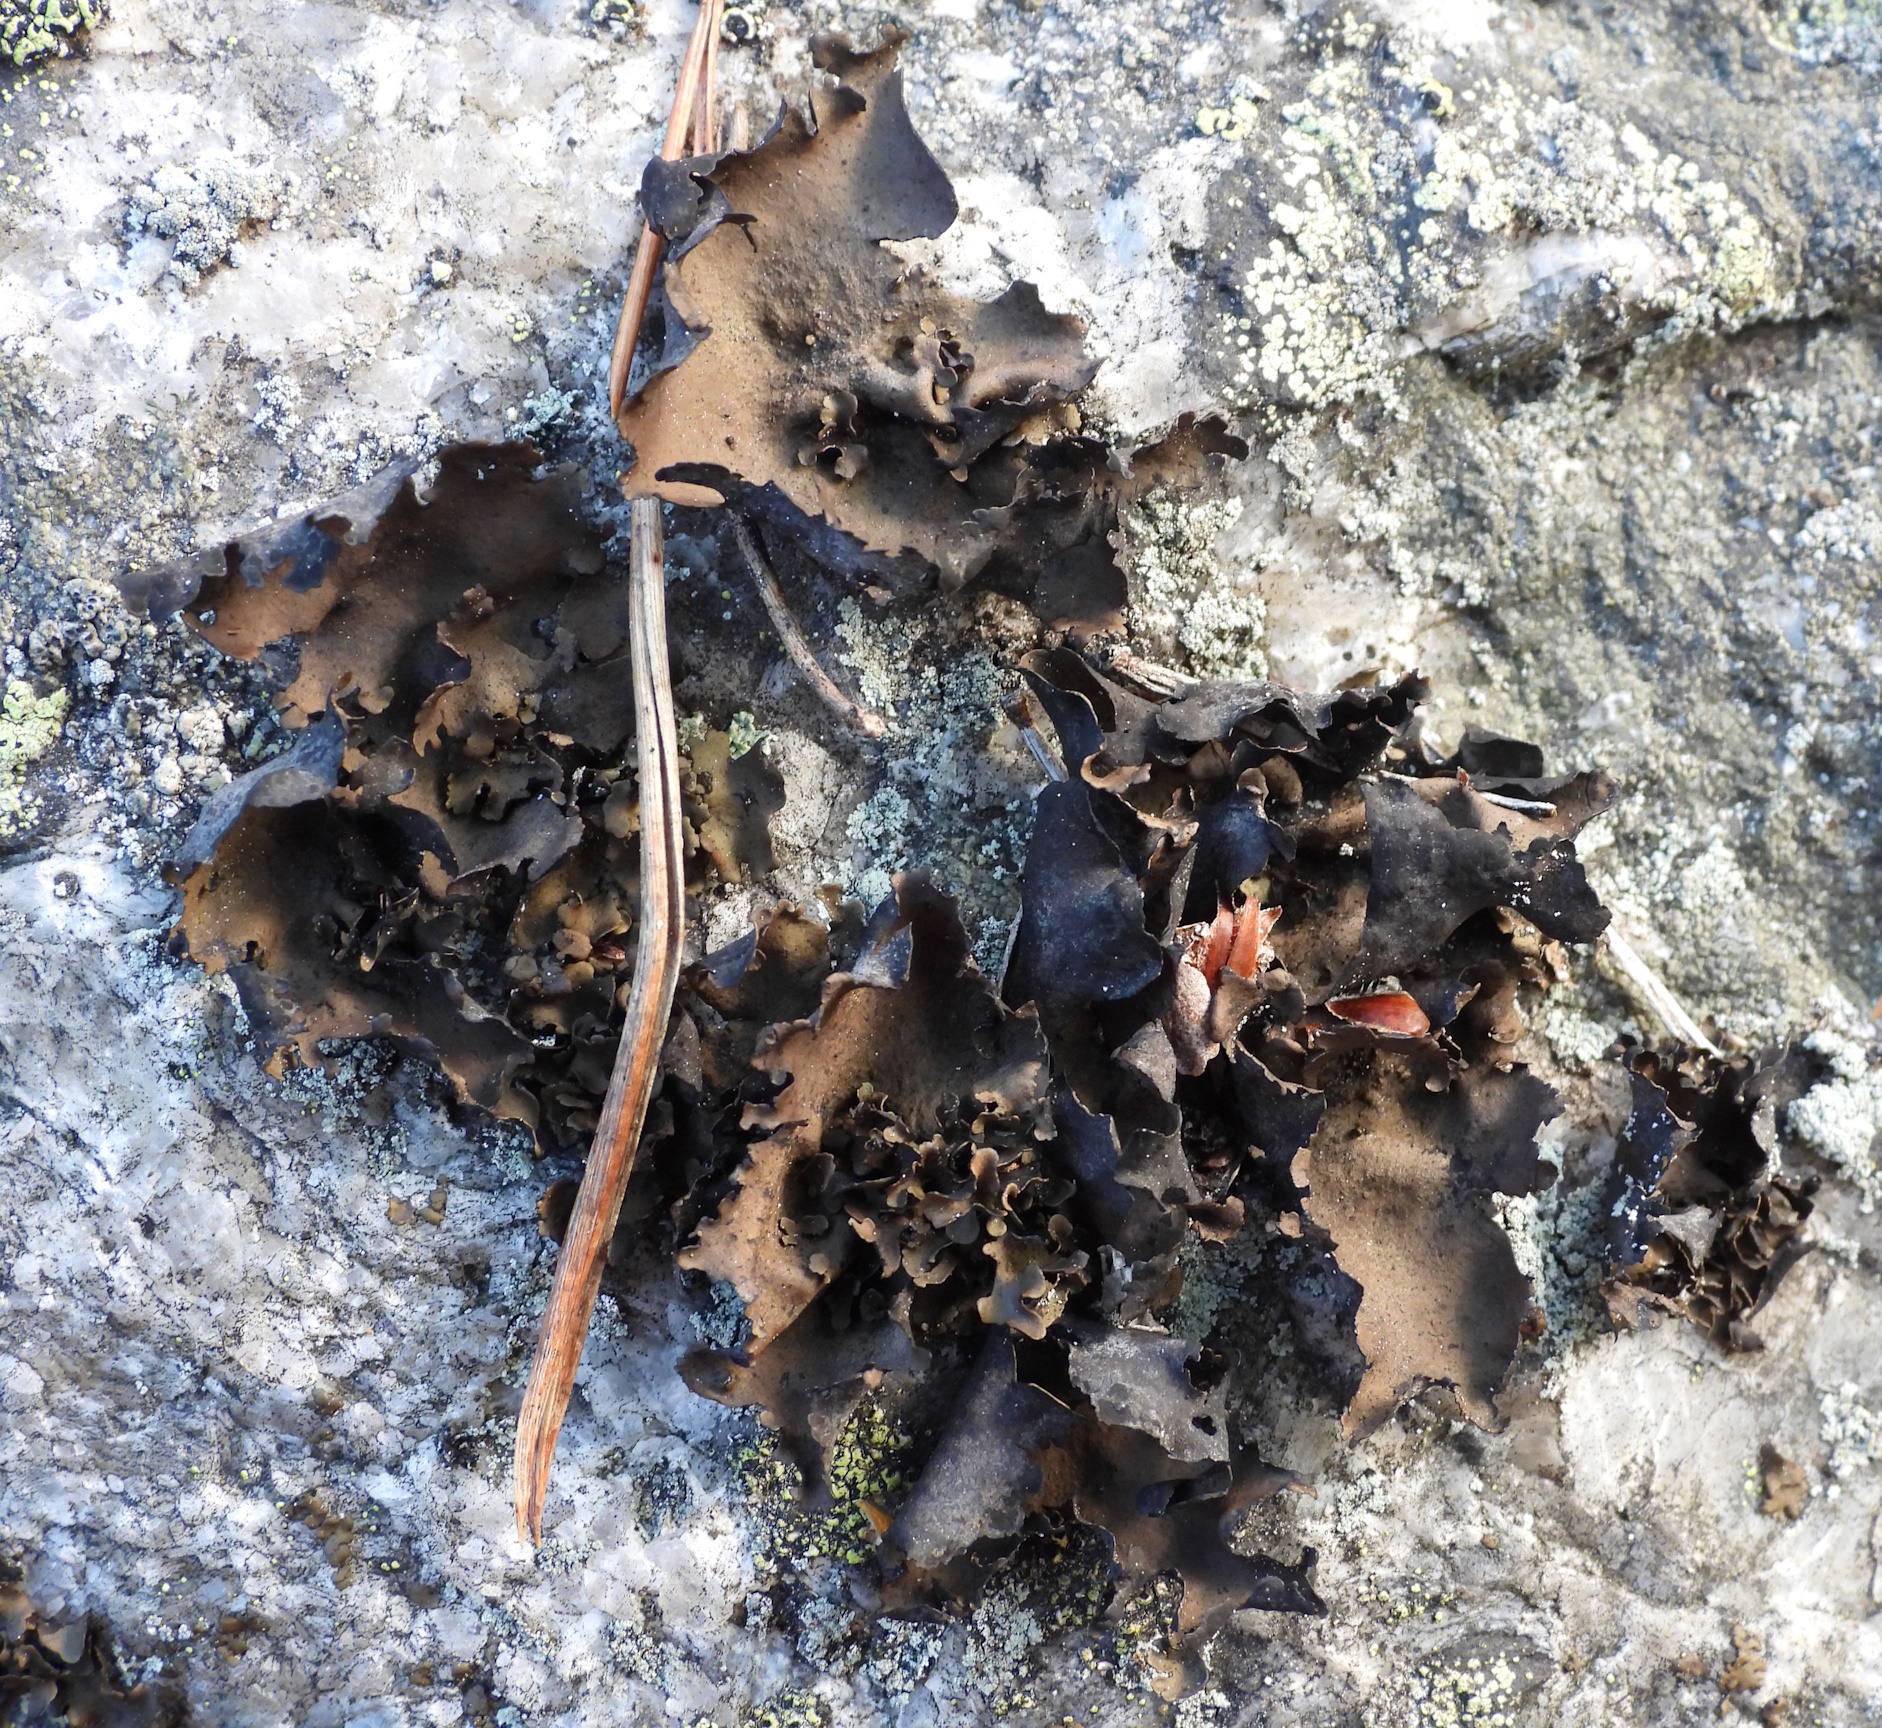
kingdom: Fungi
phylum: Ascomycota
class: Lecanoromycetes
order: Umbilicariales
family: Umbilicariaceae
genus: Umbilicaria
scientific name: Umbilicaria polyphylla
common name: Petalled rocktripe lichen
